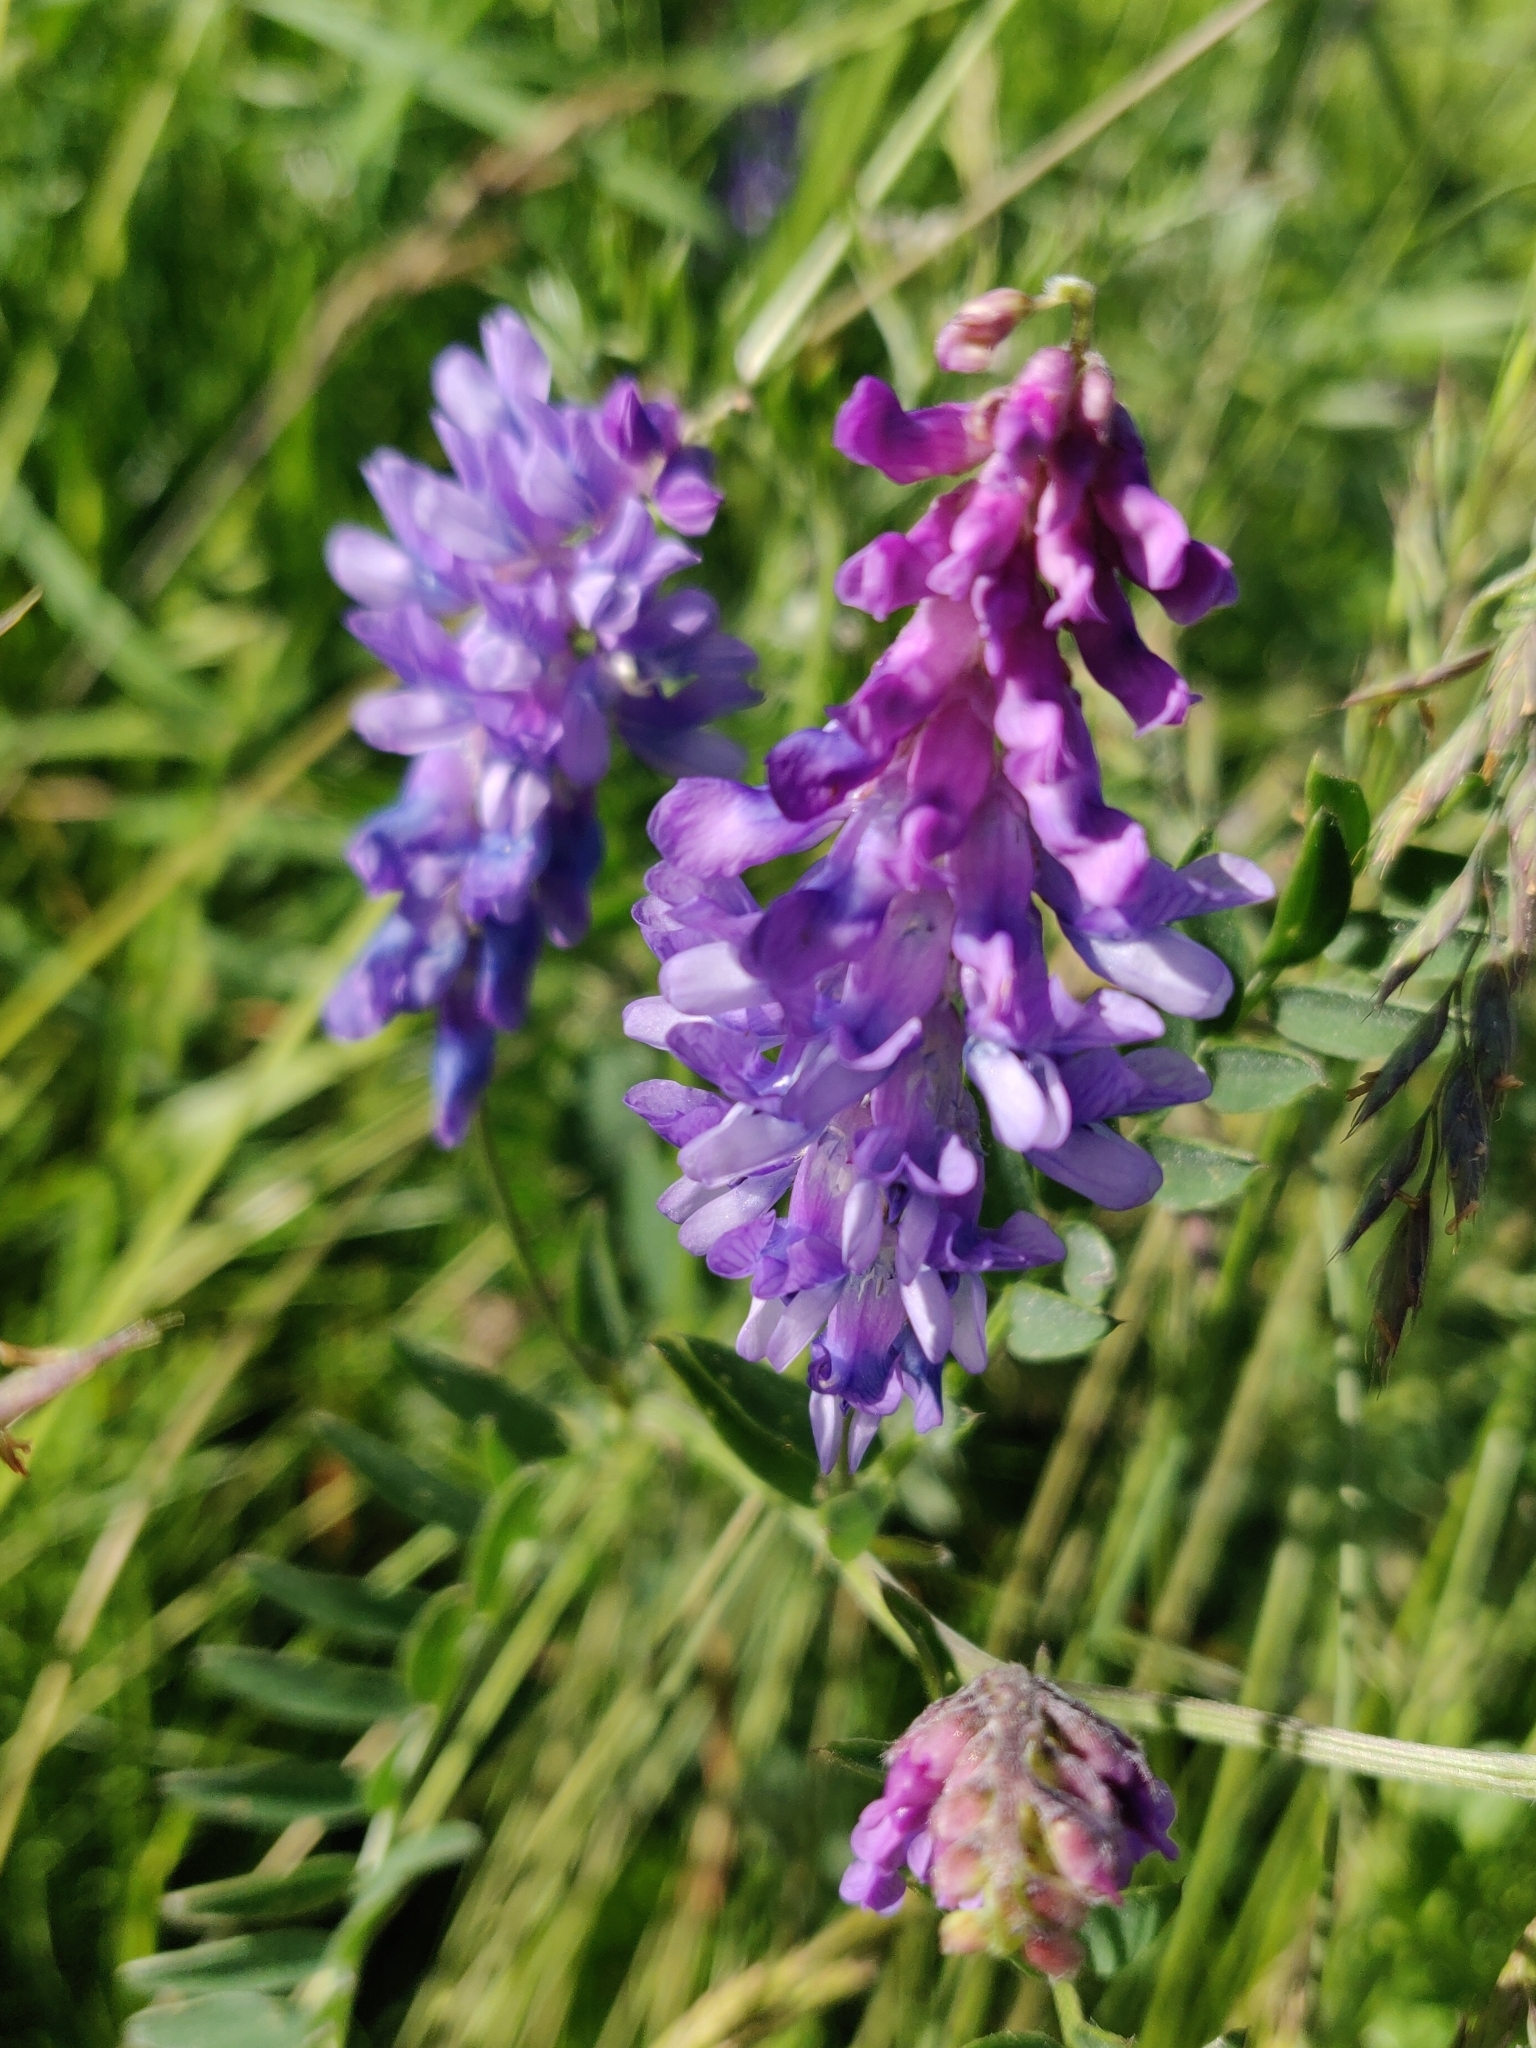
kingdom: Plantae
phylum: Tracheophyta
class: Magnoliopsida
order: Fabales
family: Fabaceae
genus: Vicia
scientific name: Vicia cracca
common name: Bird vetch
